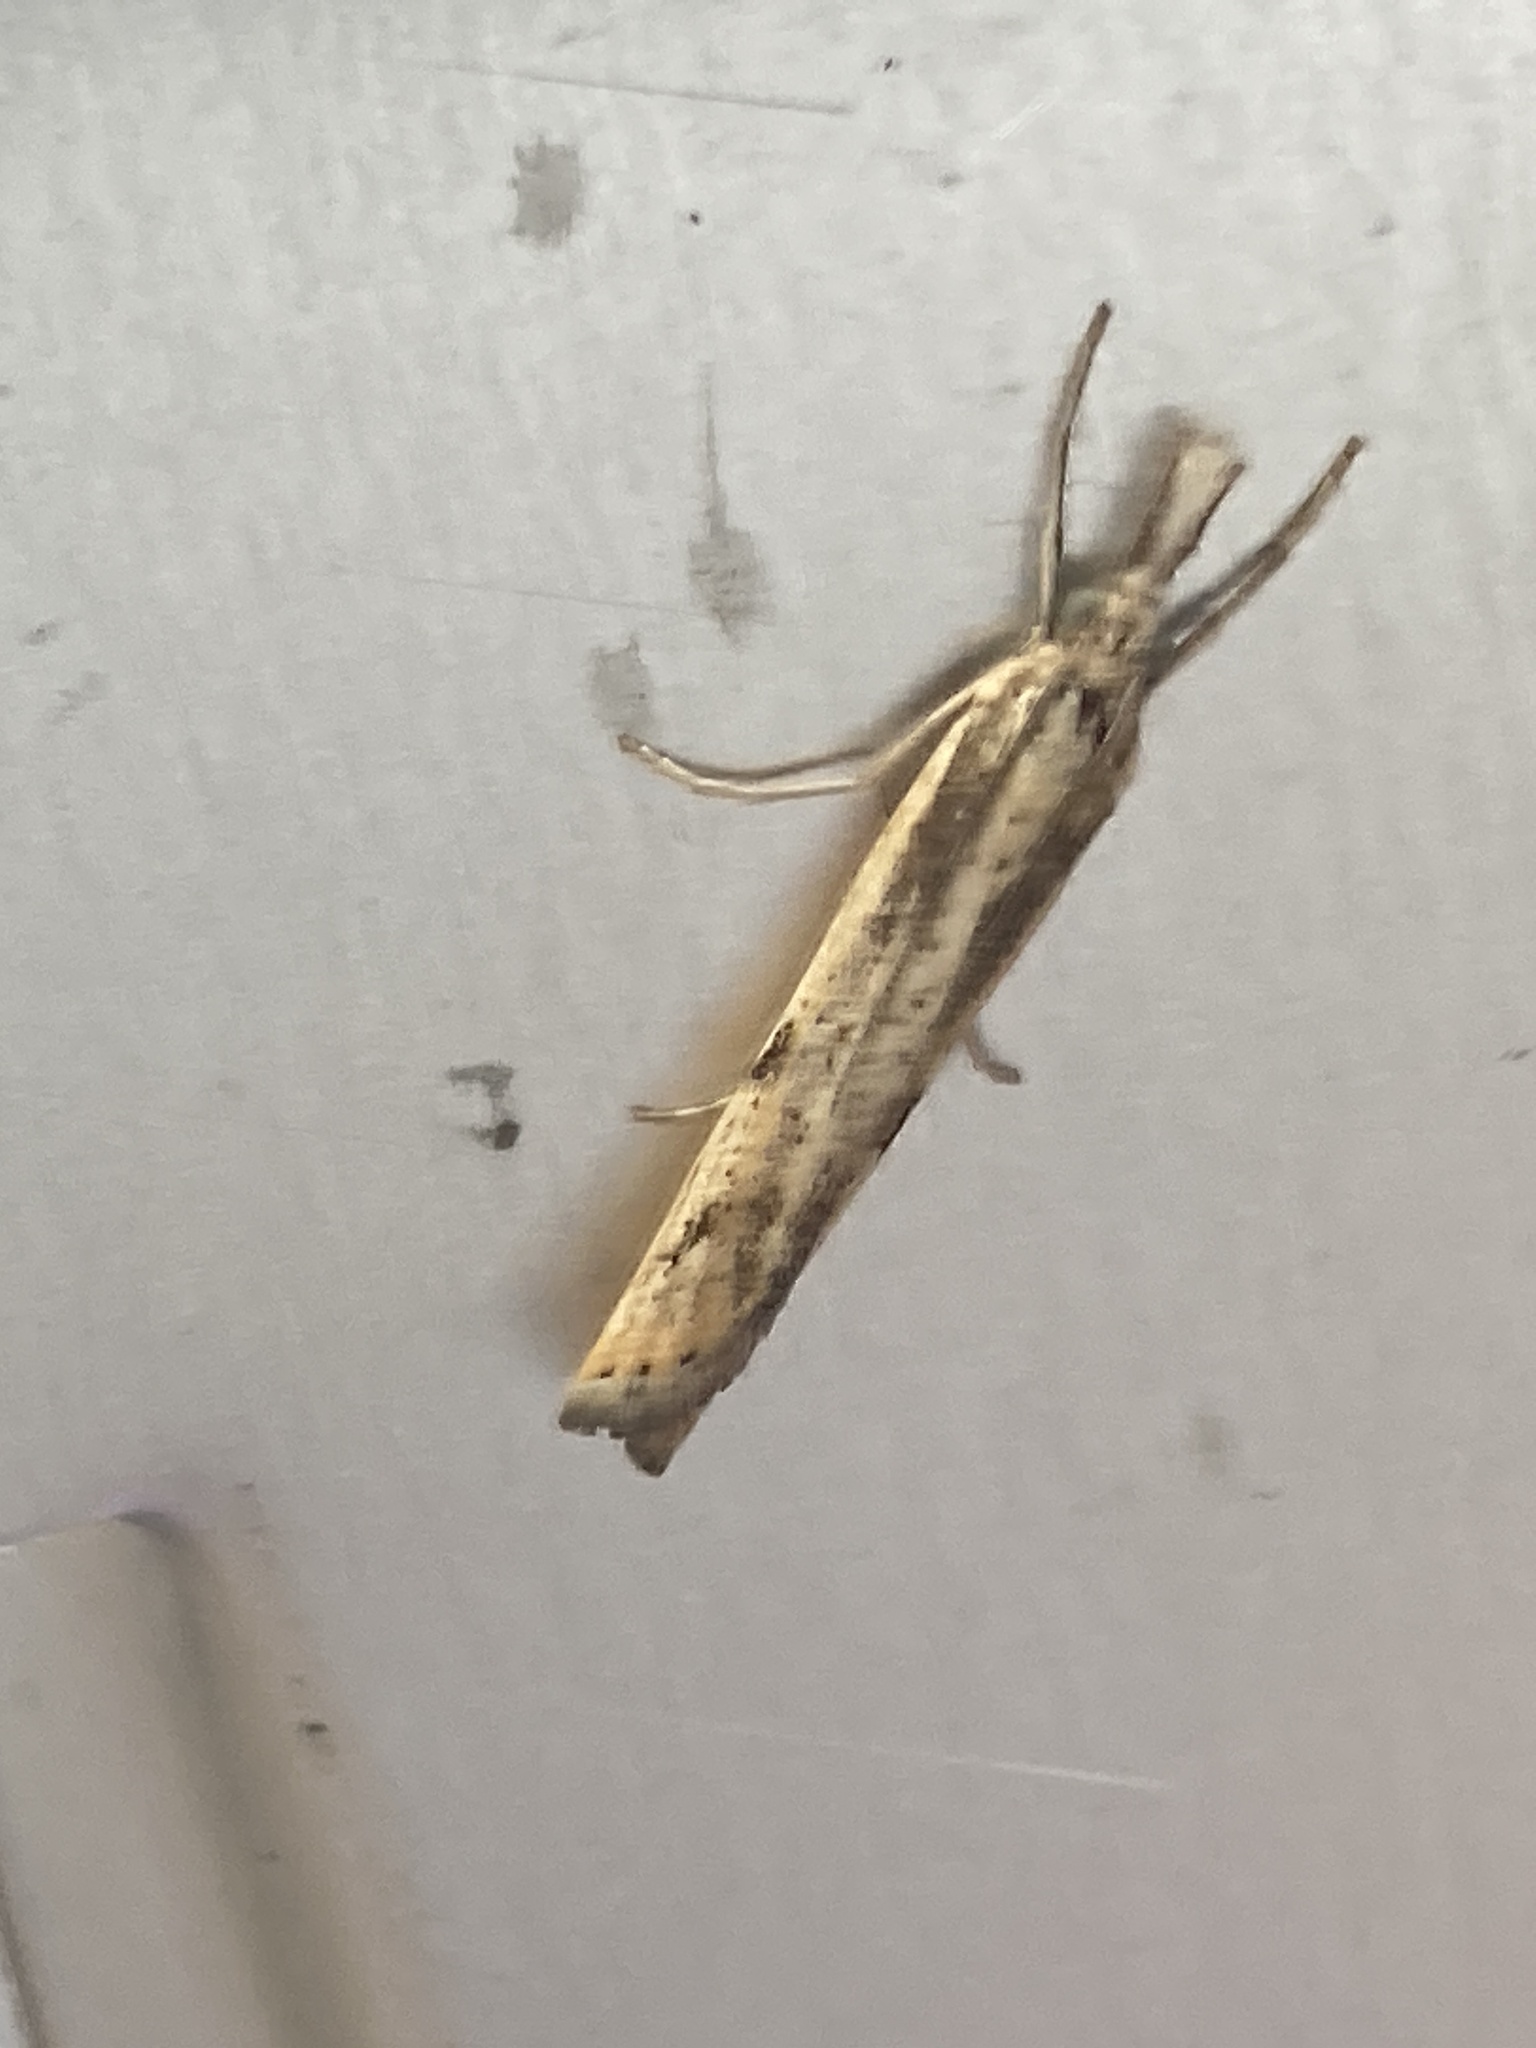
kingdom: Animalia
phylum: Arthropoda
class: Insecta
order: Lepidoptera
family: Crambidae
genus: Agriphila
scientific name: Agriphila inquinatella
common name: Barred grass-veneer
